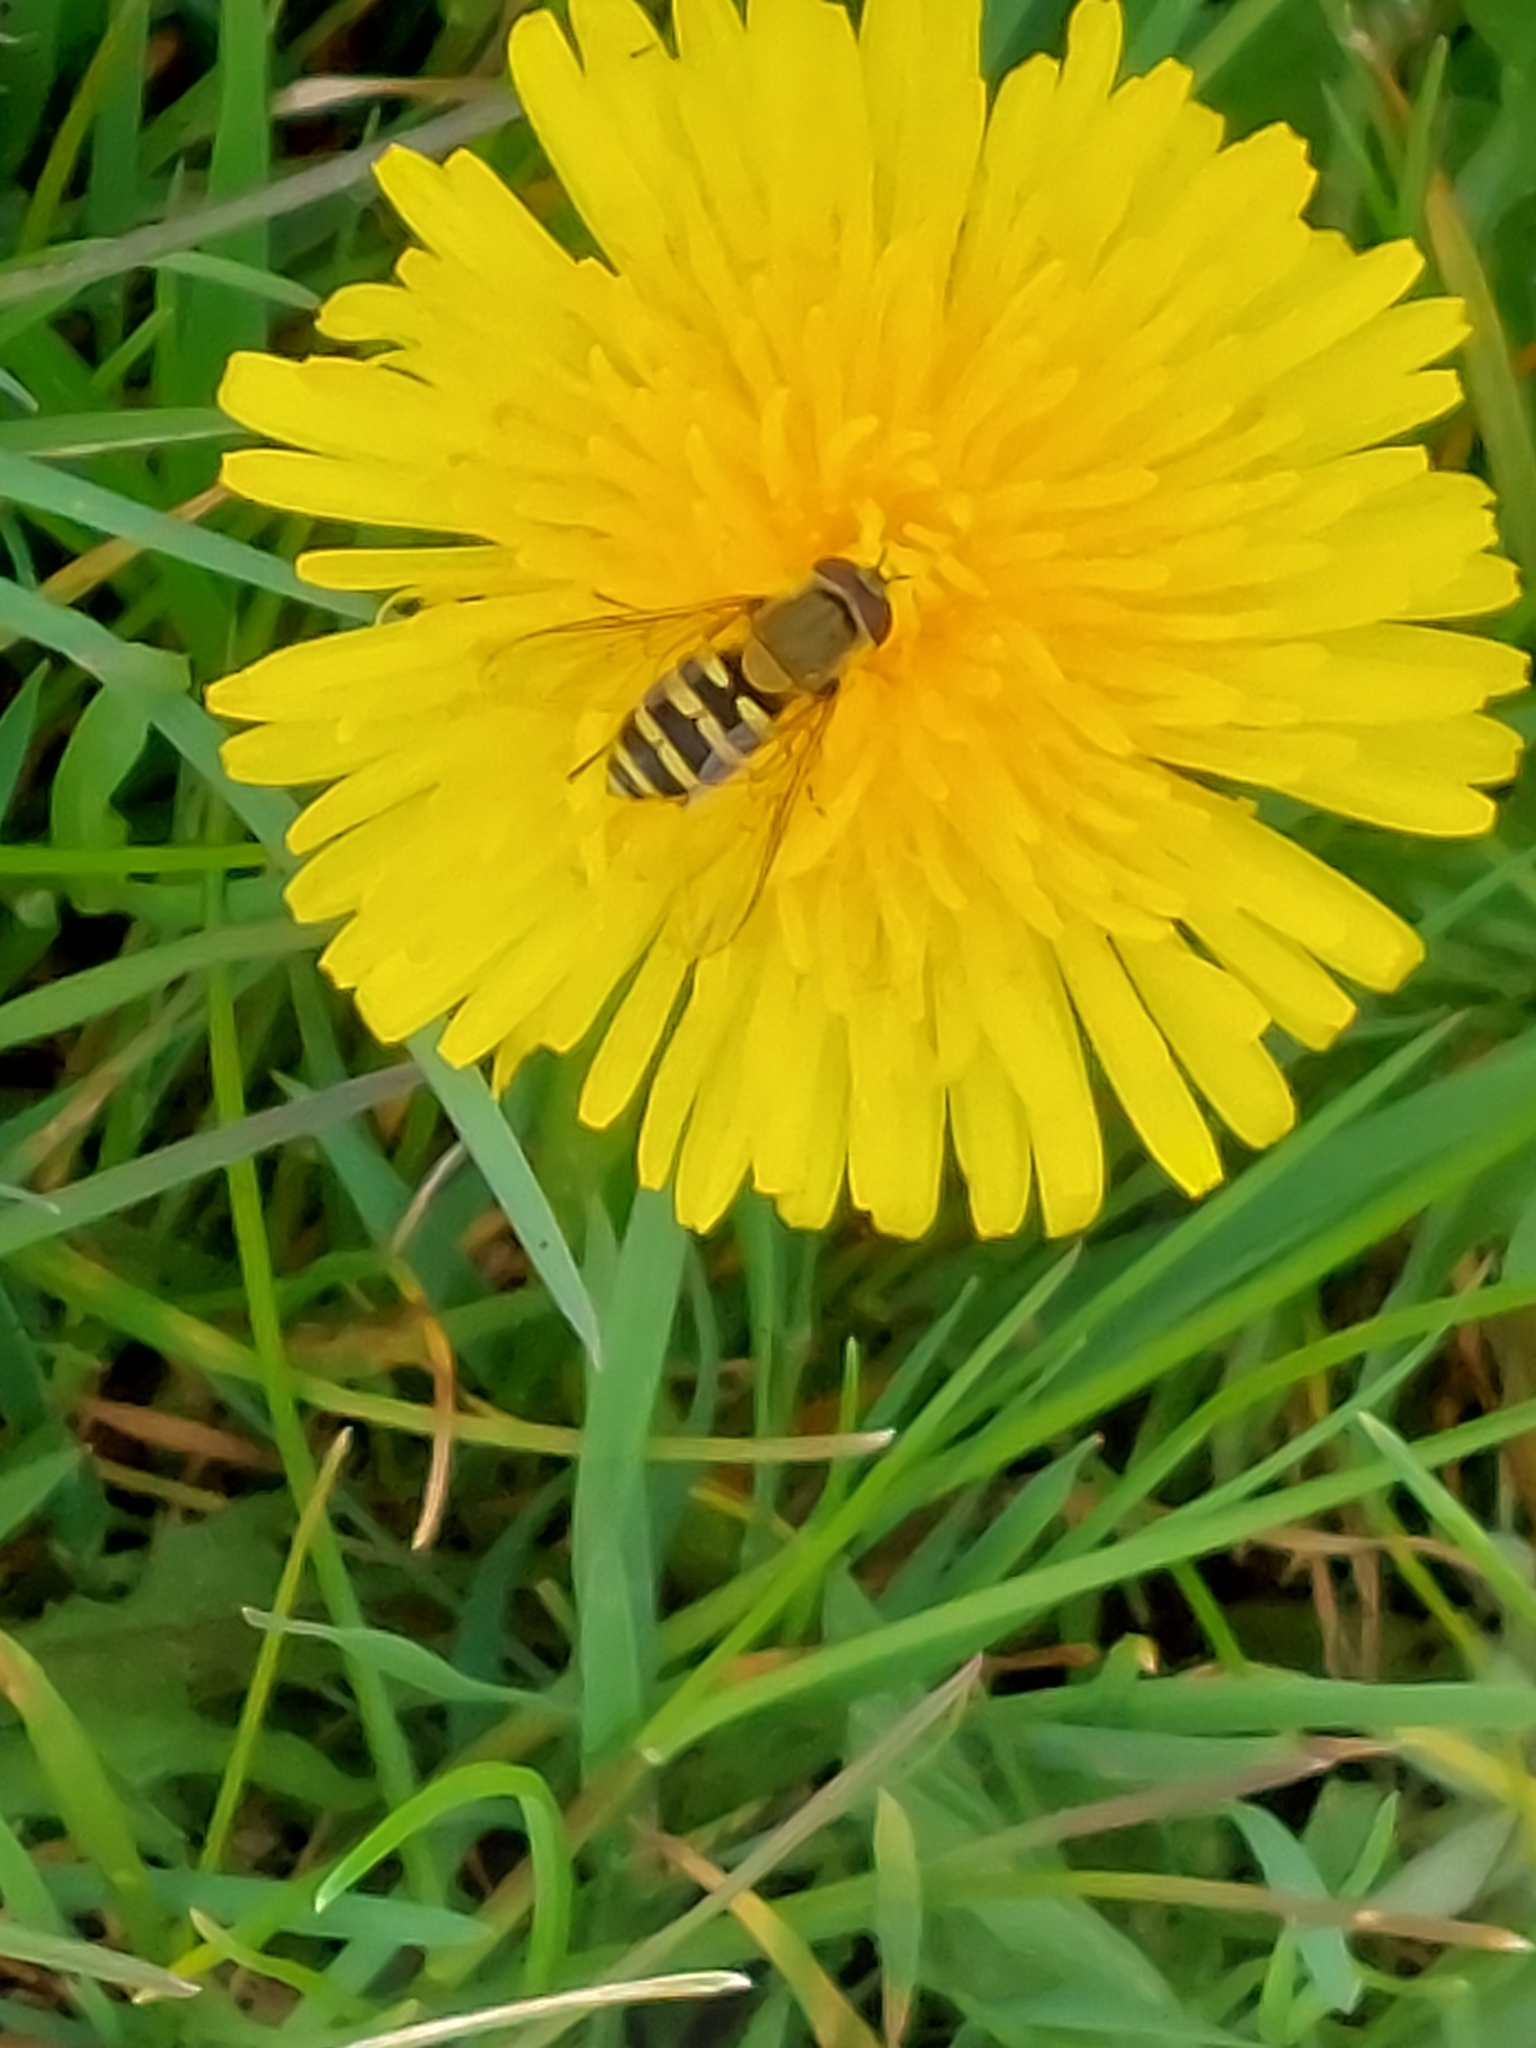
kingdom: Animalia
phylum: Arthropoda
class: Insecta
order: Diptera
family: Syrphidae
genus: Syrphus
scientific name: Syrphus
